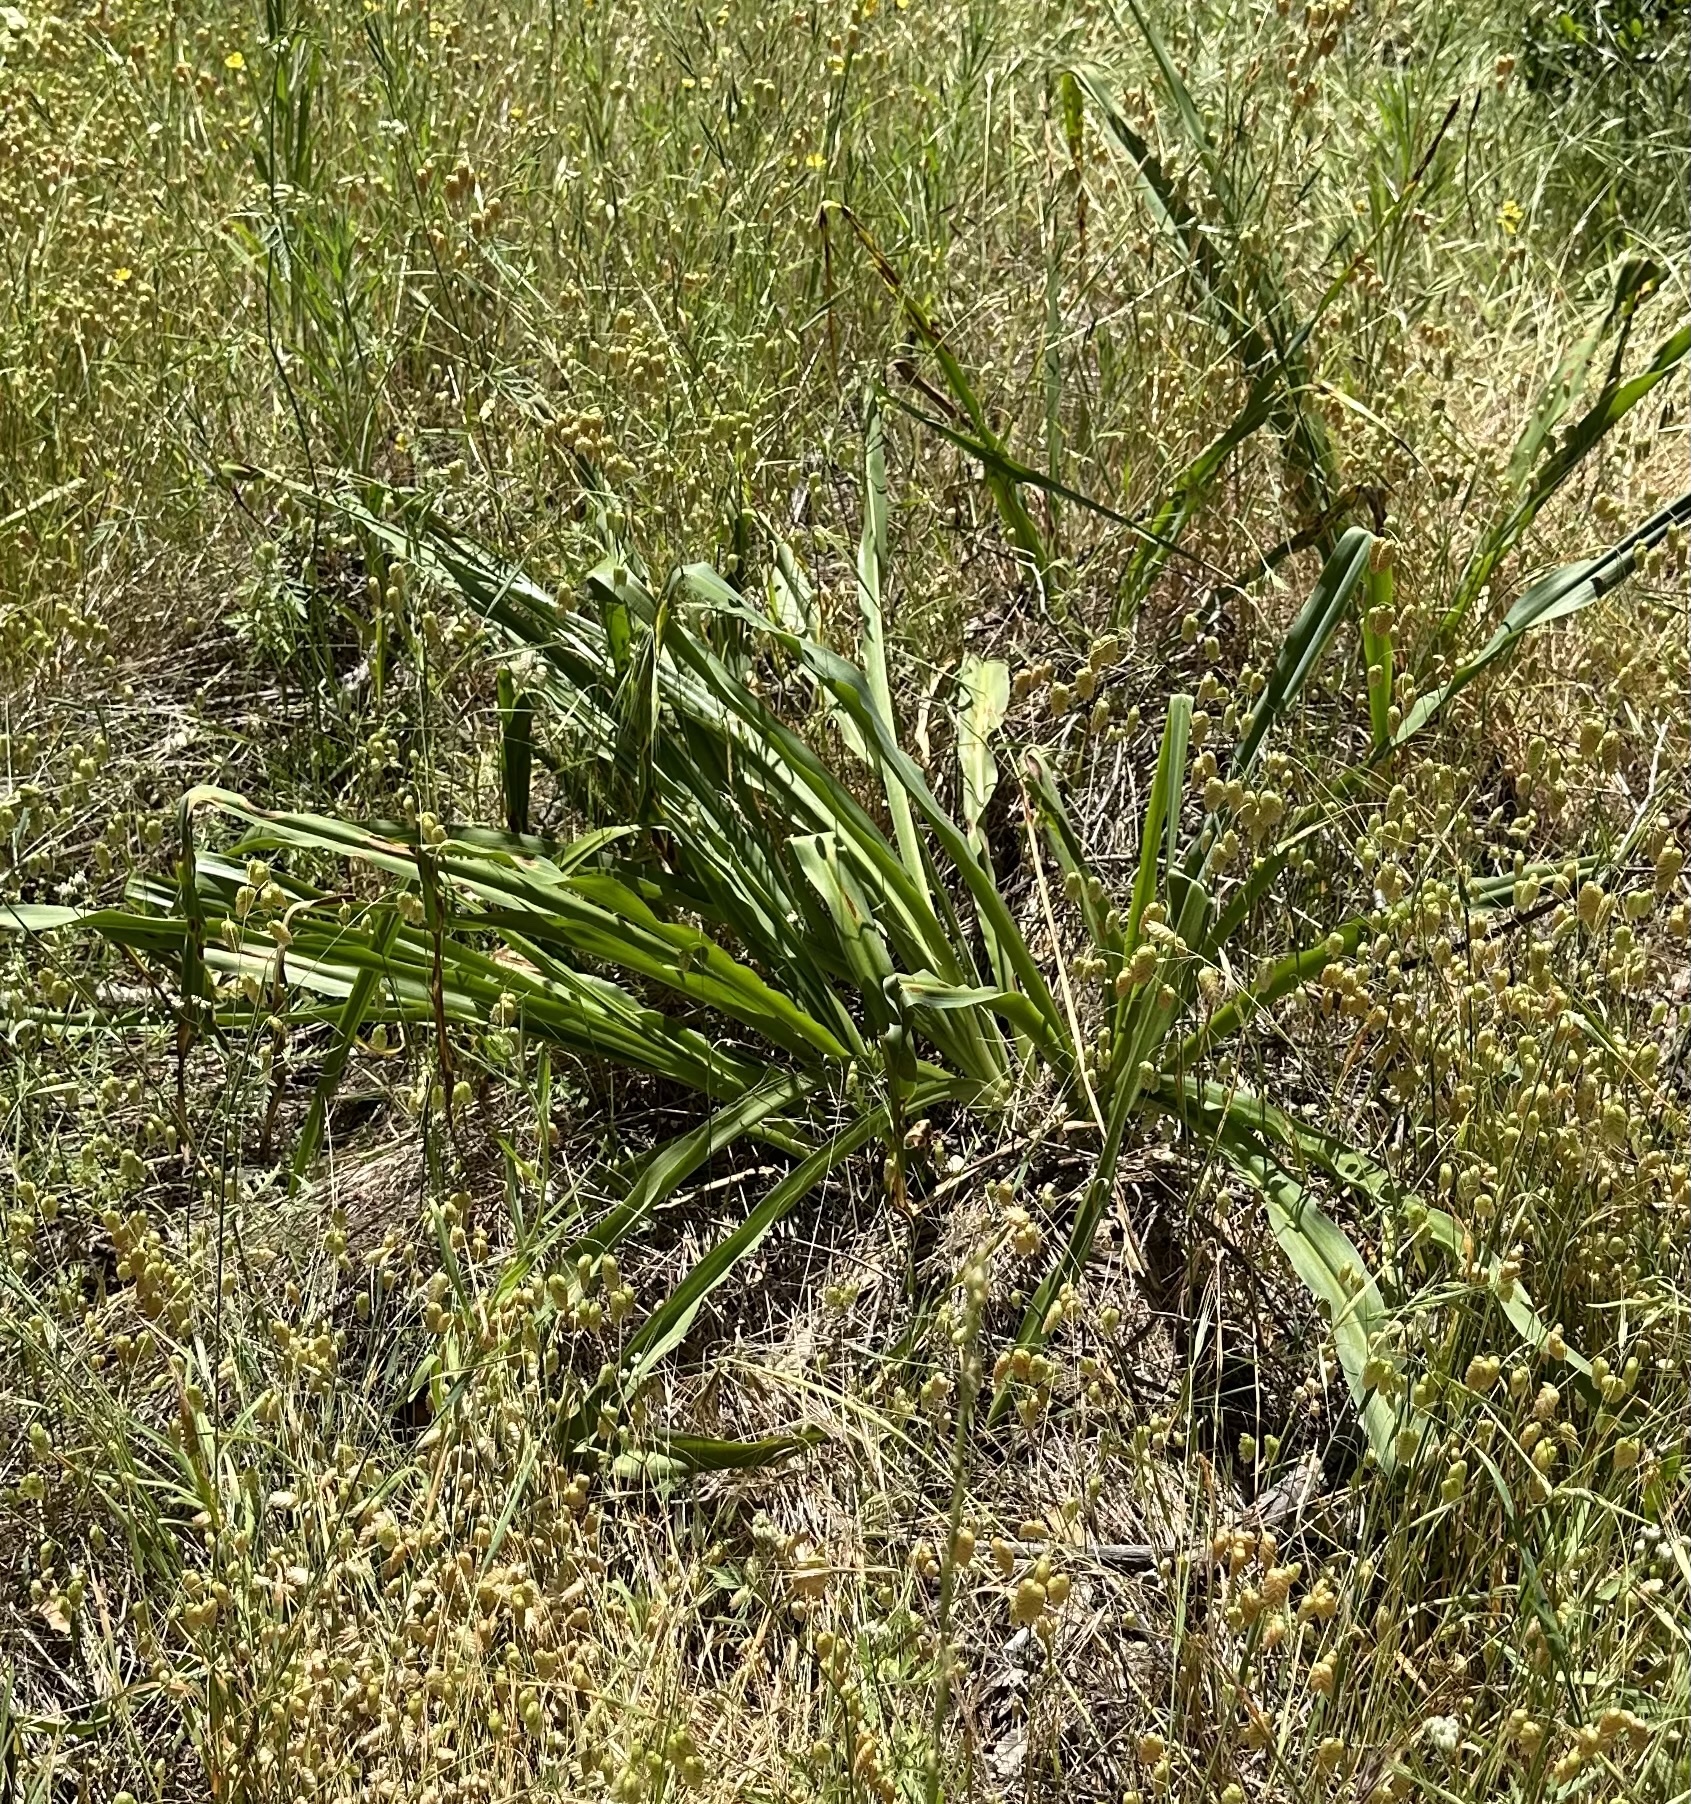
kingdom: Plantae
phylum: Tracheophyta
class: Liliopsida
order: Asparagales
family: Asparagaceae
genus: Chlorogalum
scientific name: Chlorogalum pomeridianum
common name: Amole
